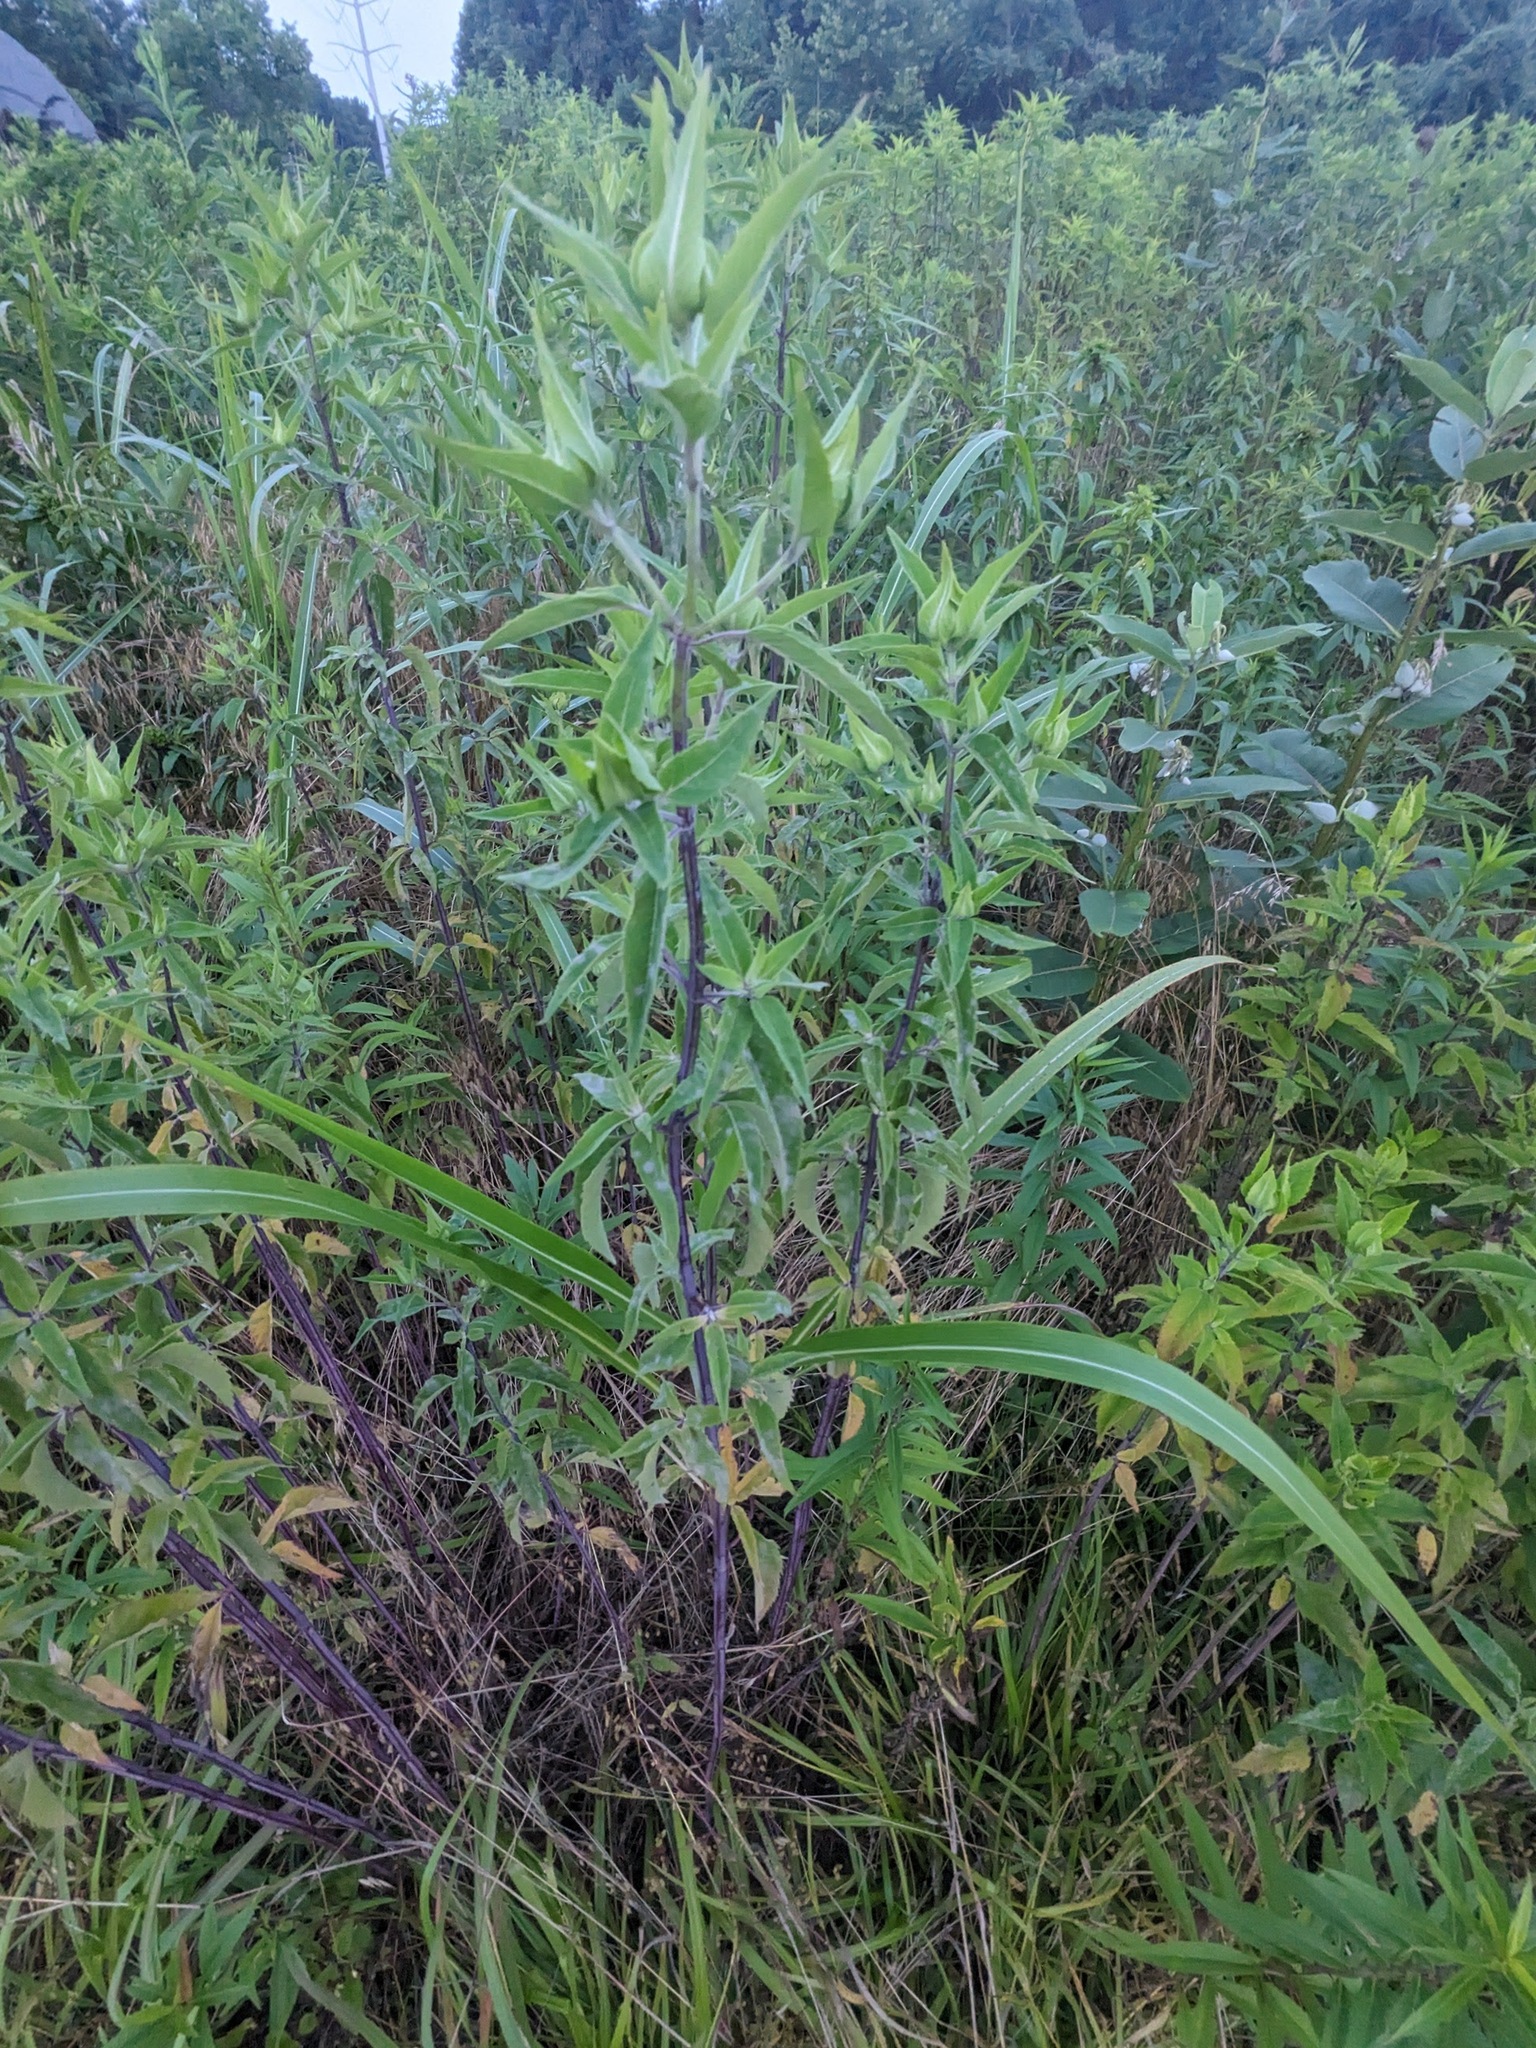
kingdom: Plantae
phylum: Tracheophyta
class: Magnoliopsida
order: Lamiales
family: Lamiaceae
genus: Monarda
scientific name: Monarda fistulosa
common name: Purple beebalm
